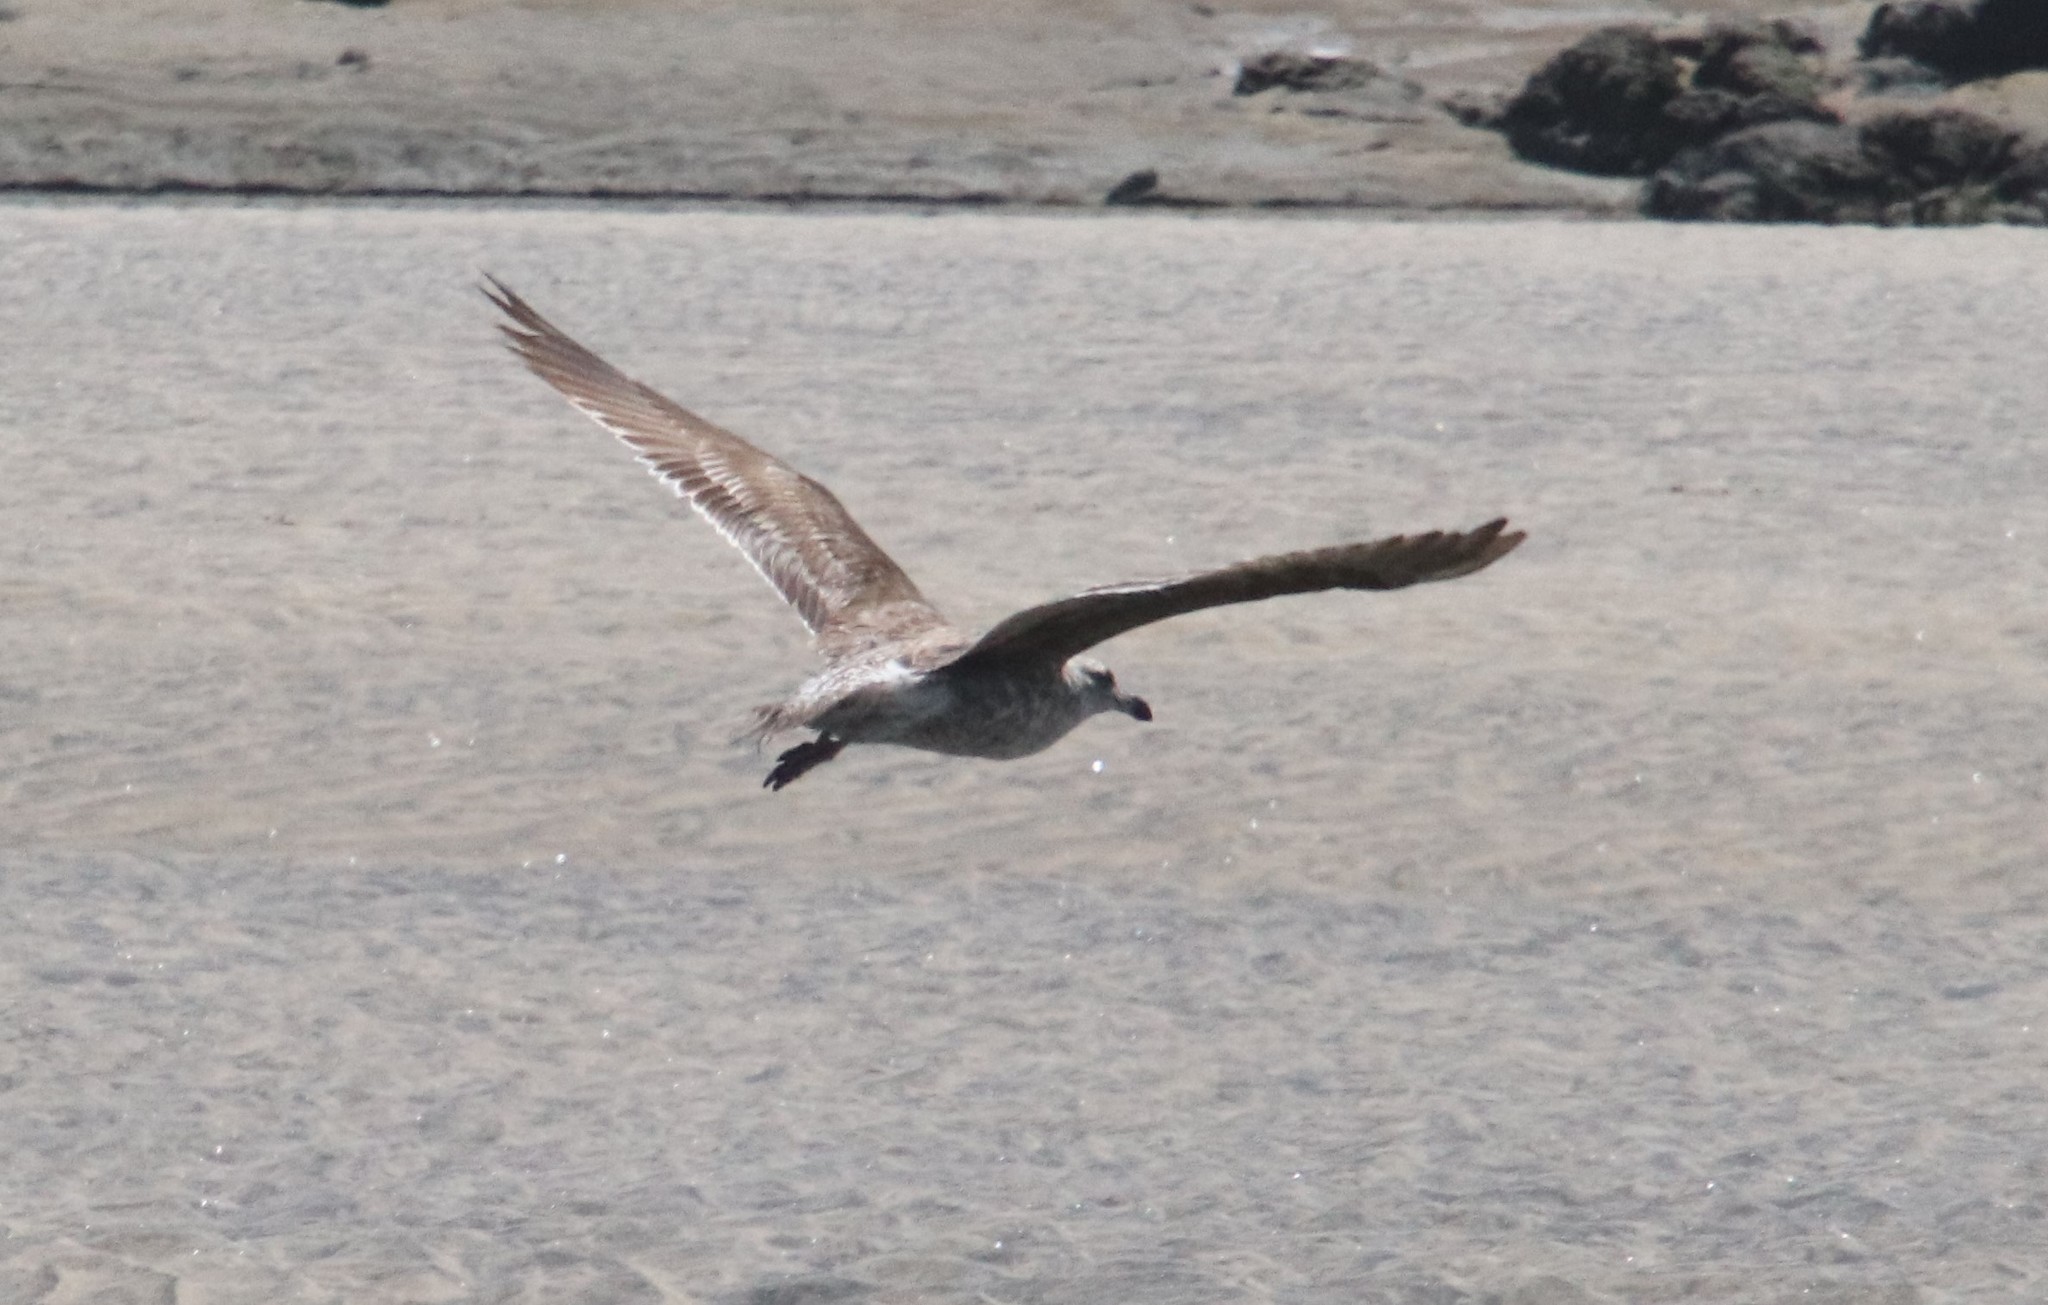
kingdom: Animalia
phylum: Chordata
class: Aves
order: Charadriiformes
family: Laridae
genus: Larus
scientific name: Larus occidentalis
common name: Western gull
